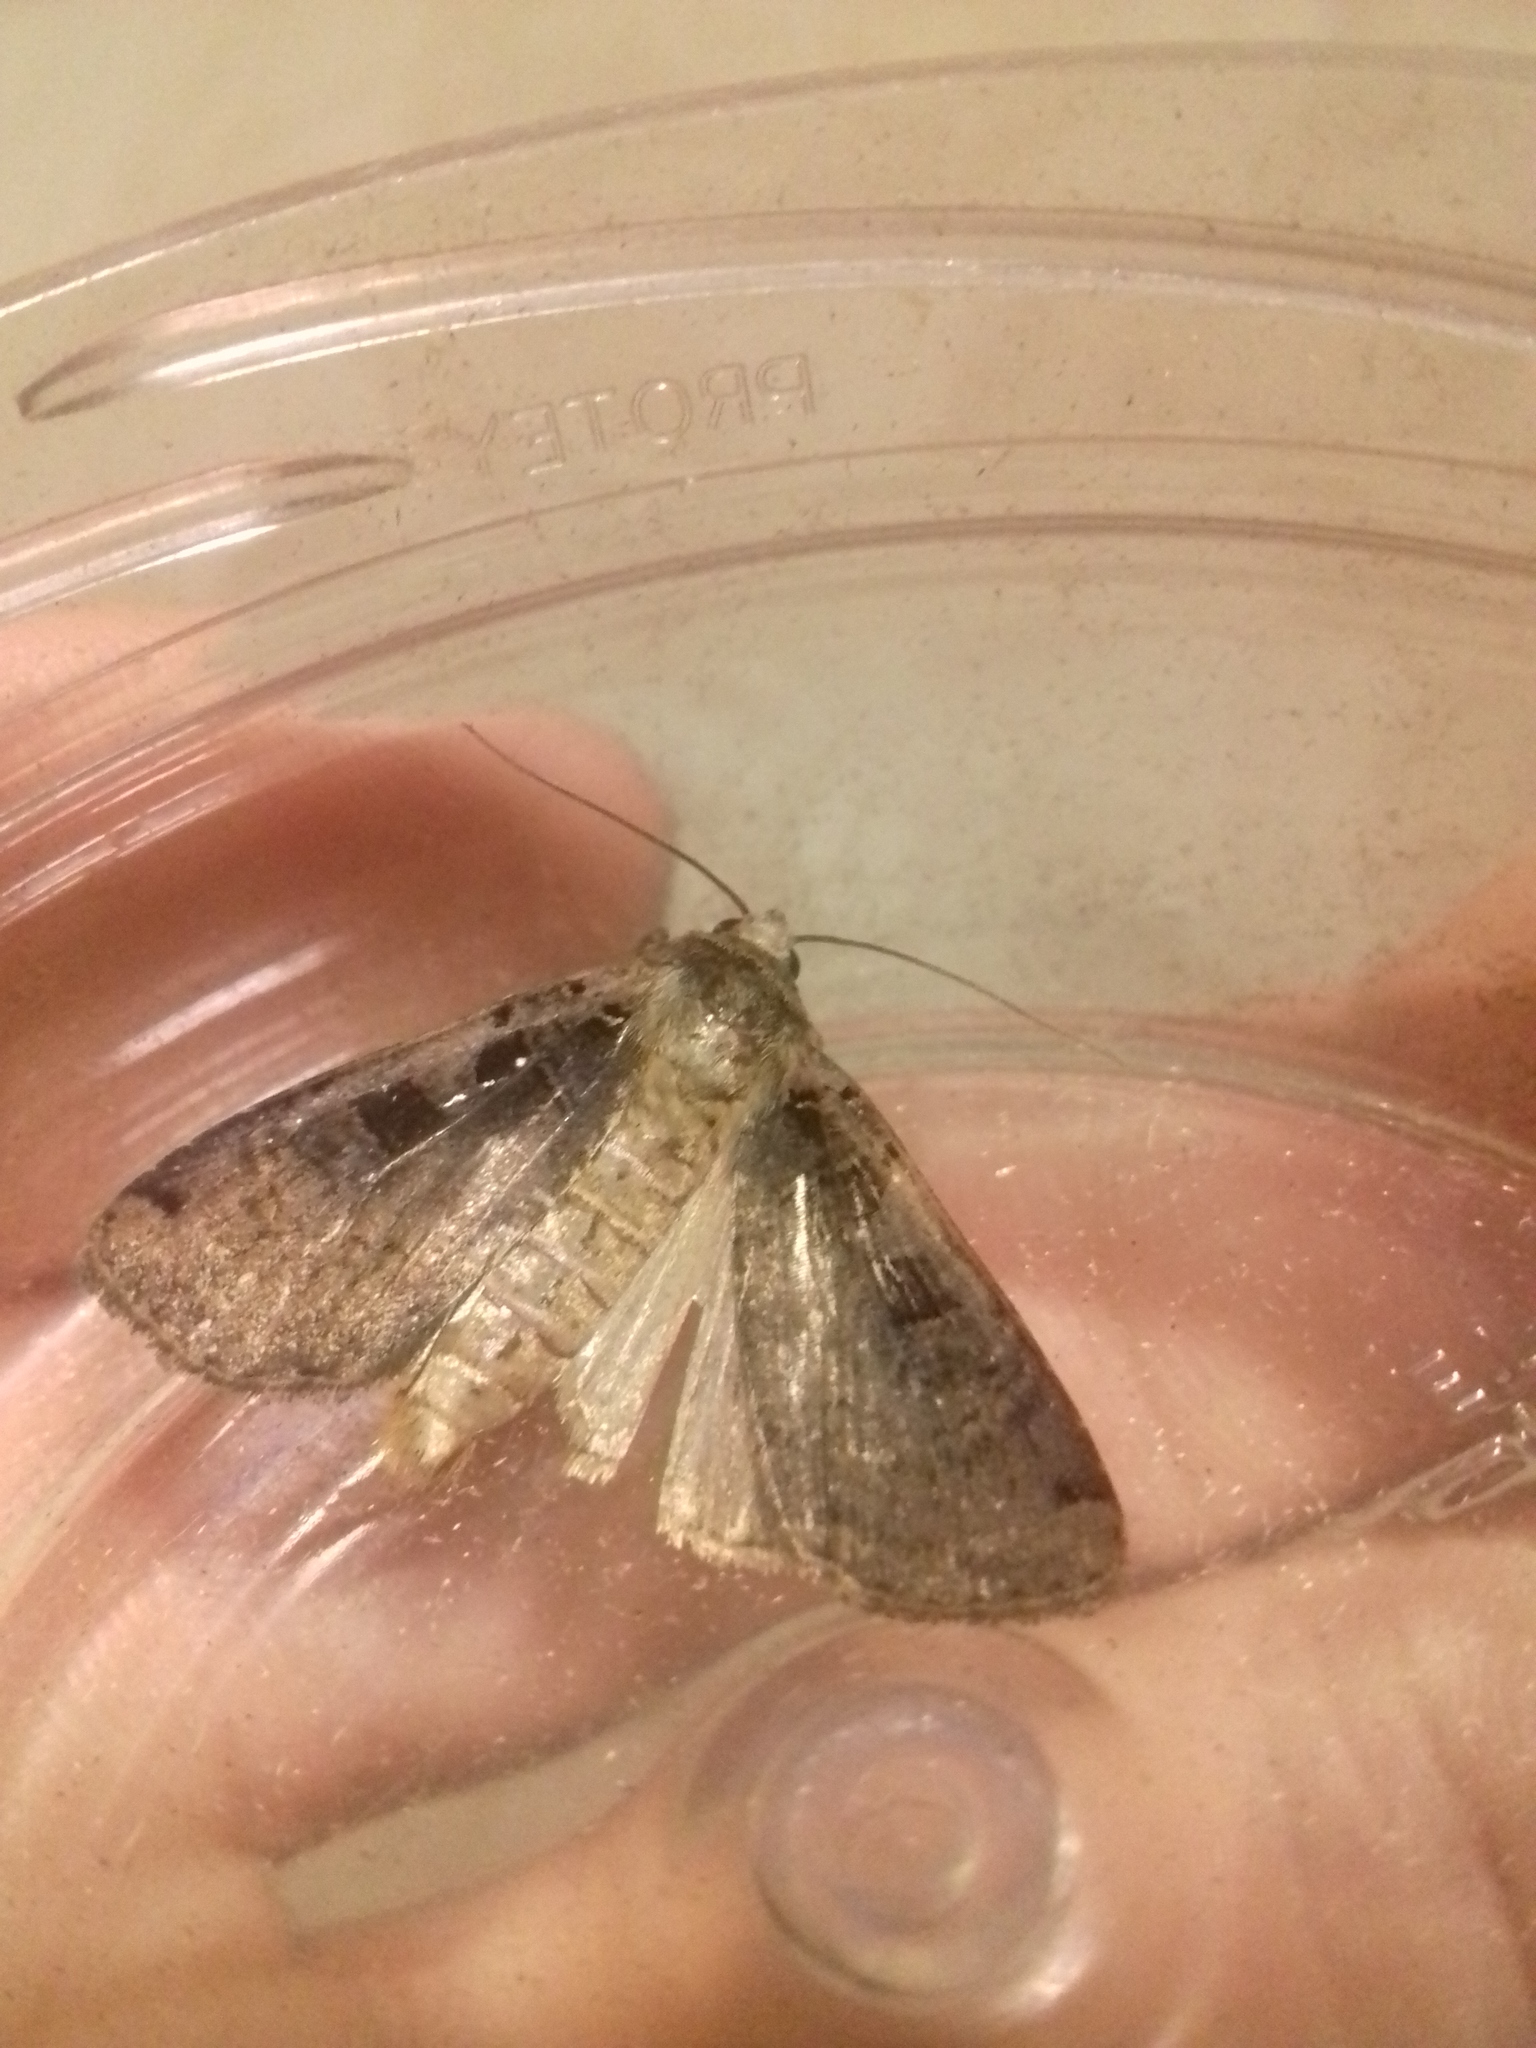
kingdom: Animalia
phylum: Arthropoda
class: Insecta
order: Lepidoptera
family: Noctuidae
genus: Xestia
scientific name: Xestia ditrapezium
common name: Triple-spotted clay
